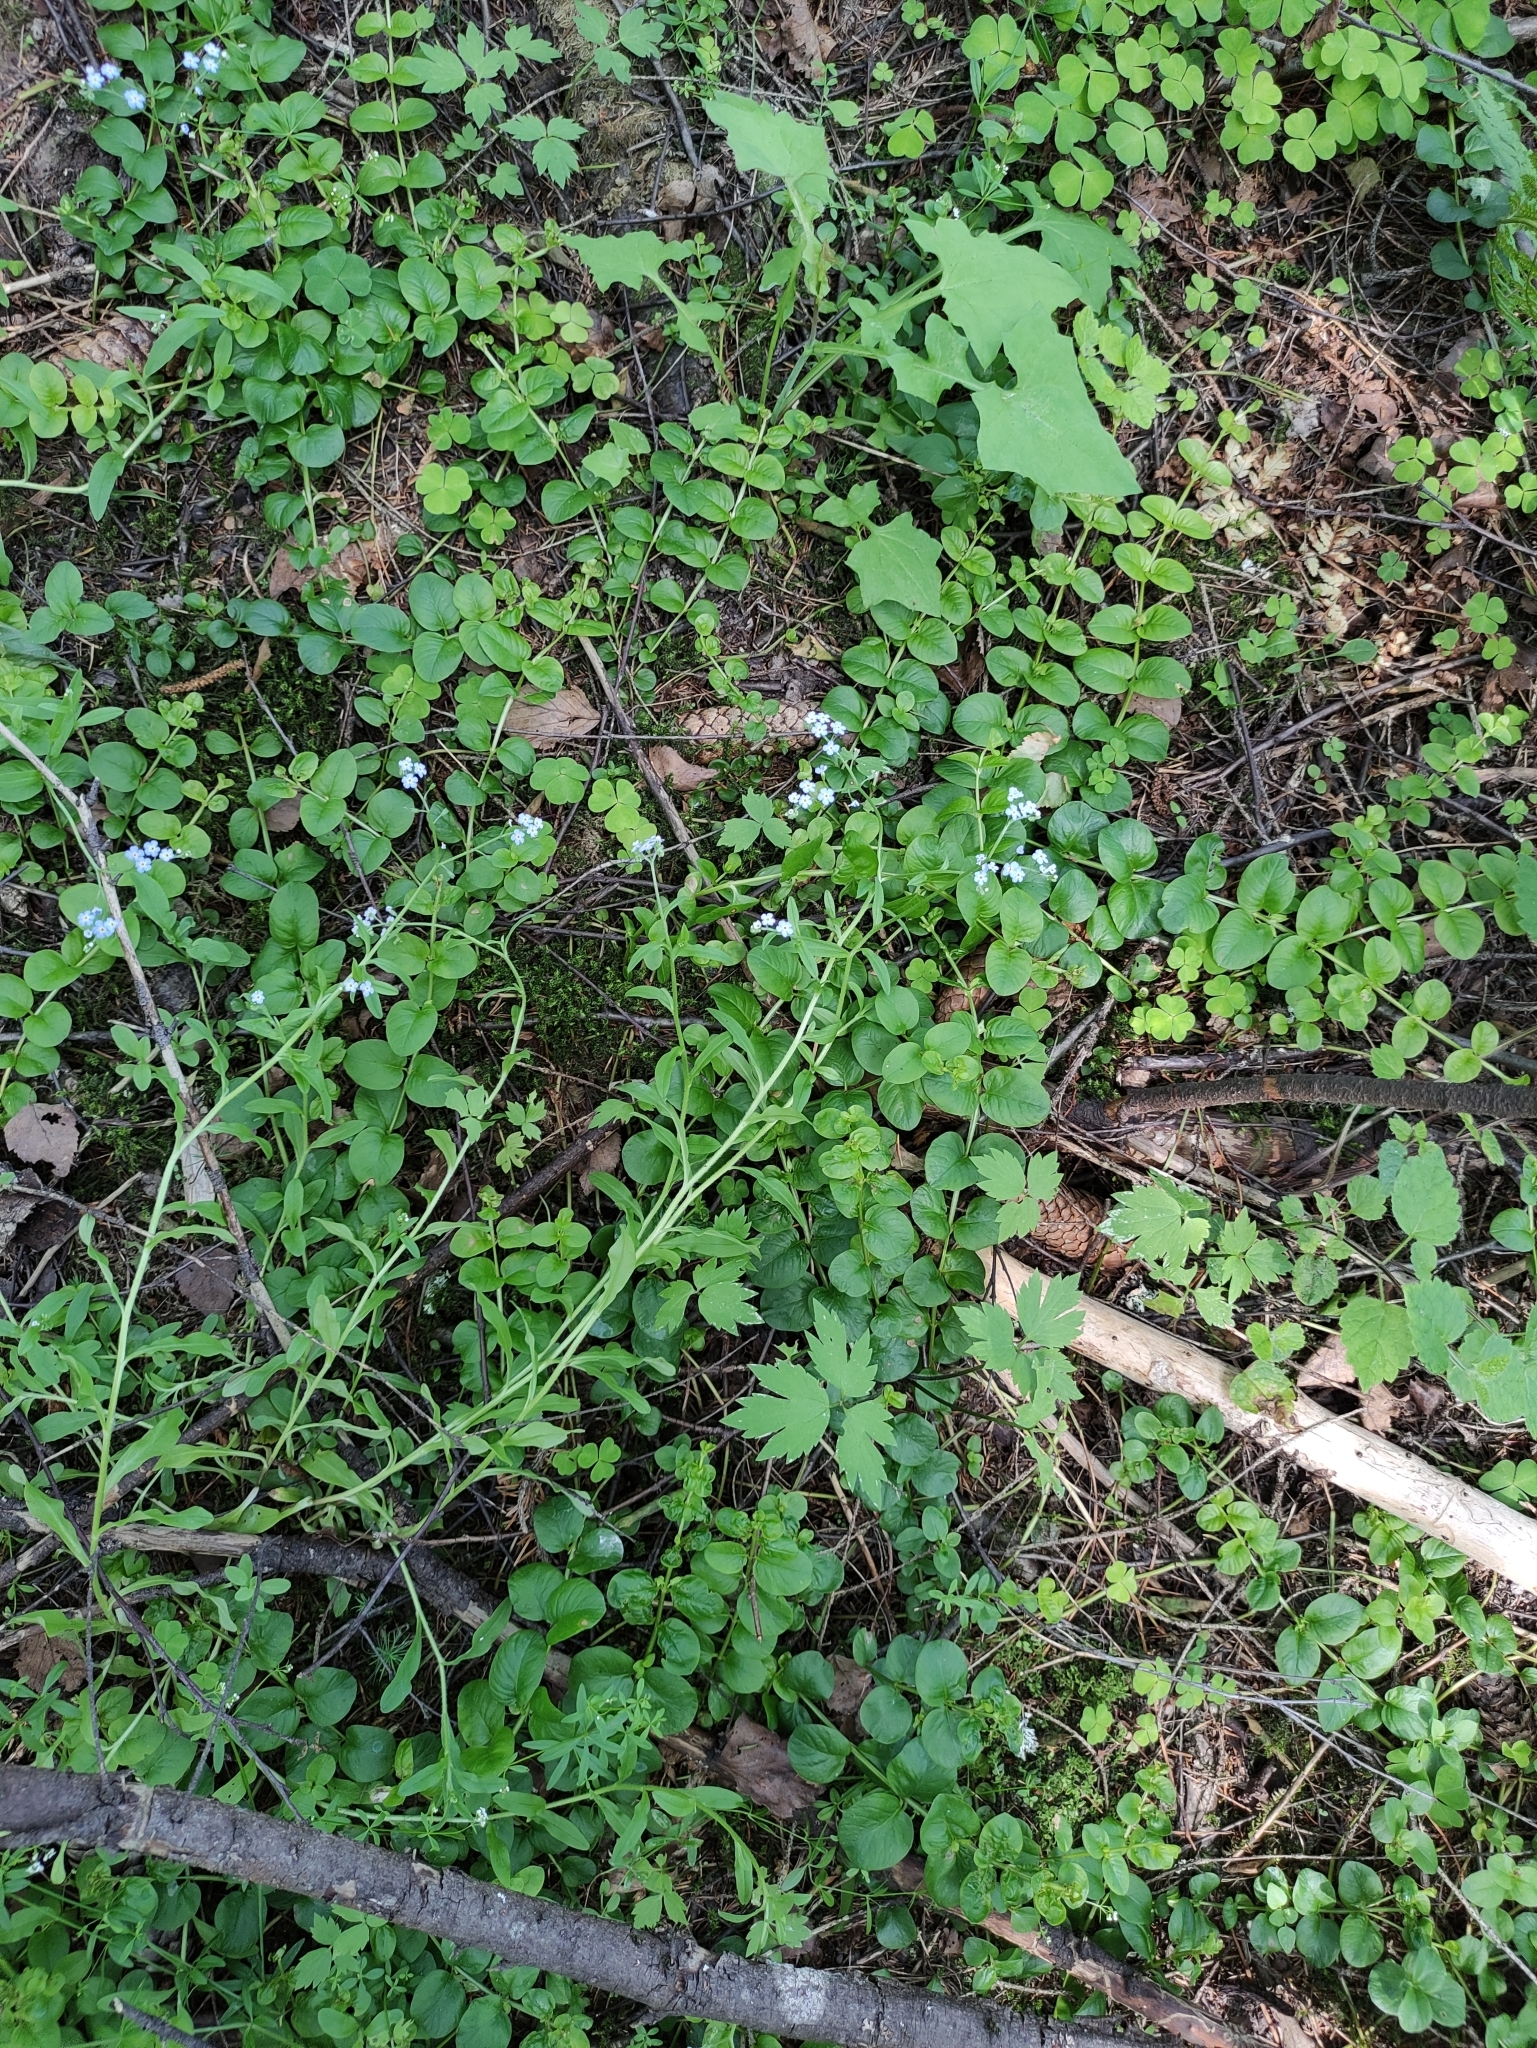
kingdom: Plantae
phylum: Tracheophyta
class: Magnoliopsida
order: Boraginales
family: Boraginaceae
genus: Myosotis
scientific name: Myosotis scorpioides
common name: Water forget-me-not
